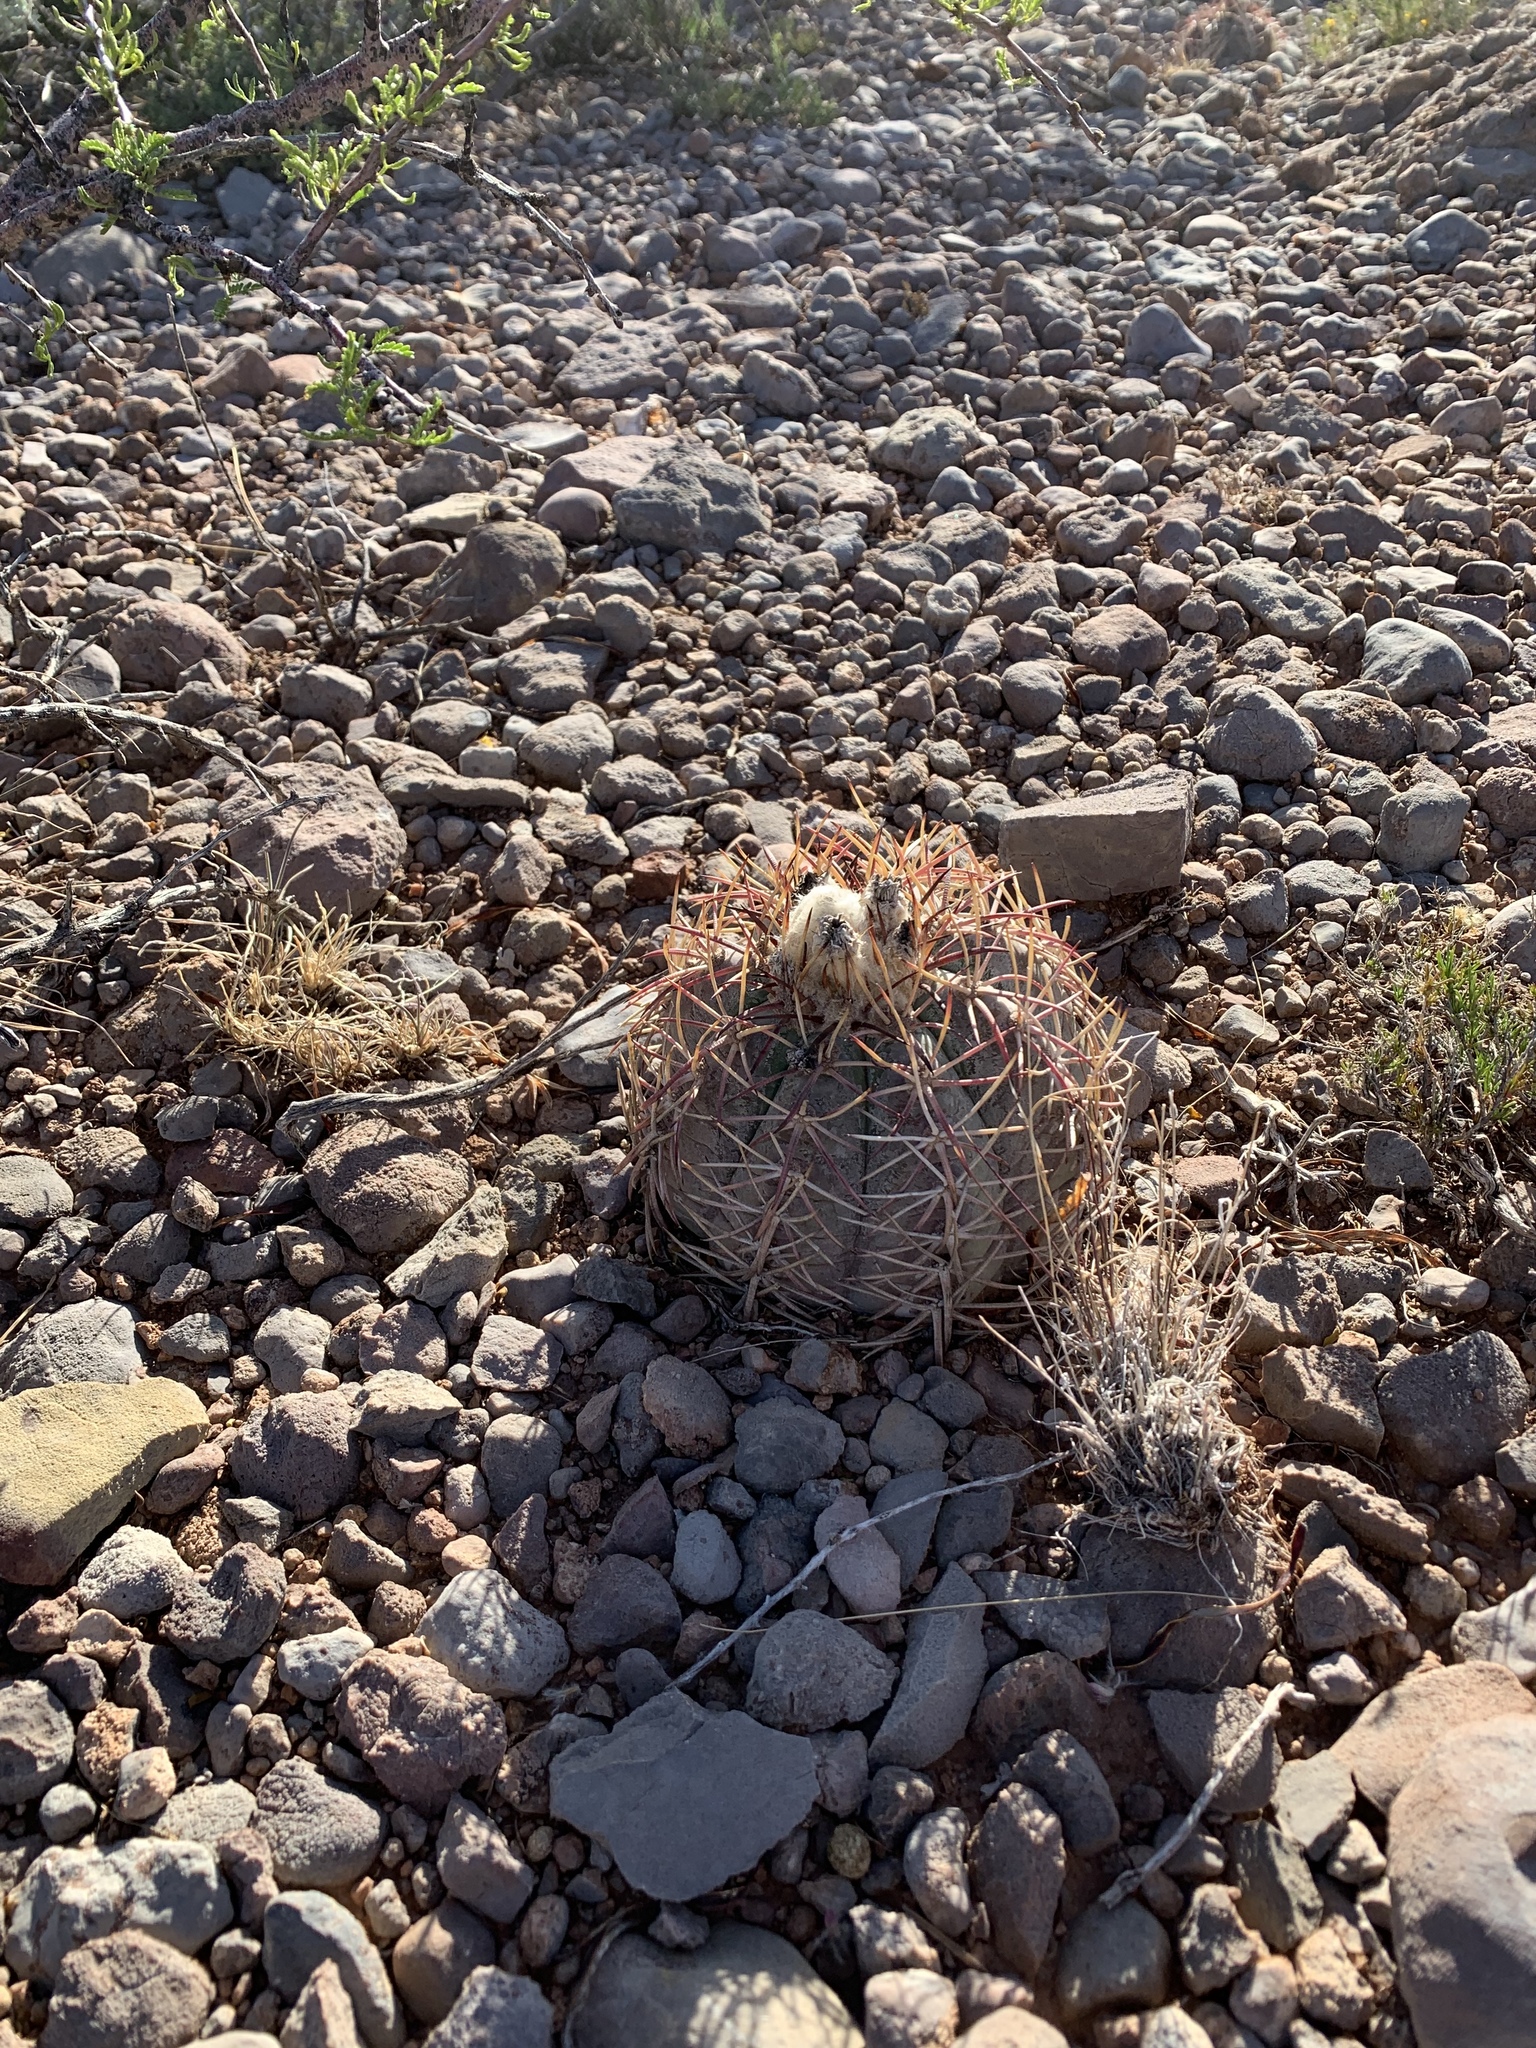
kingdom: Plantae
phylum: Tracheophyta
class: Magnoliopsida
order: Caryophyllales
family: Cactaceae
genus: Echinocactus
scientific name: Echinocactus horizonthalonius
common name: Devilshead
